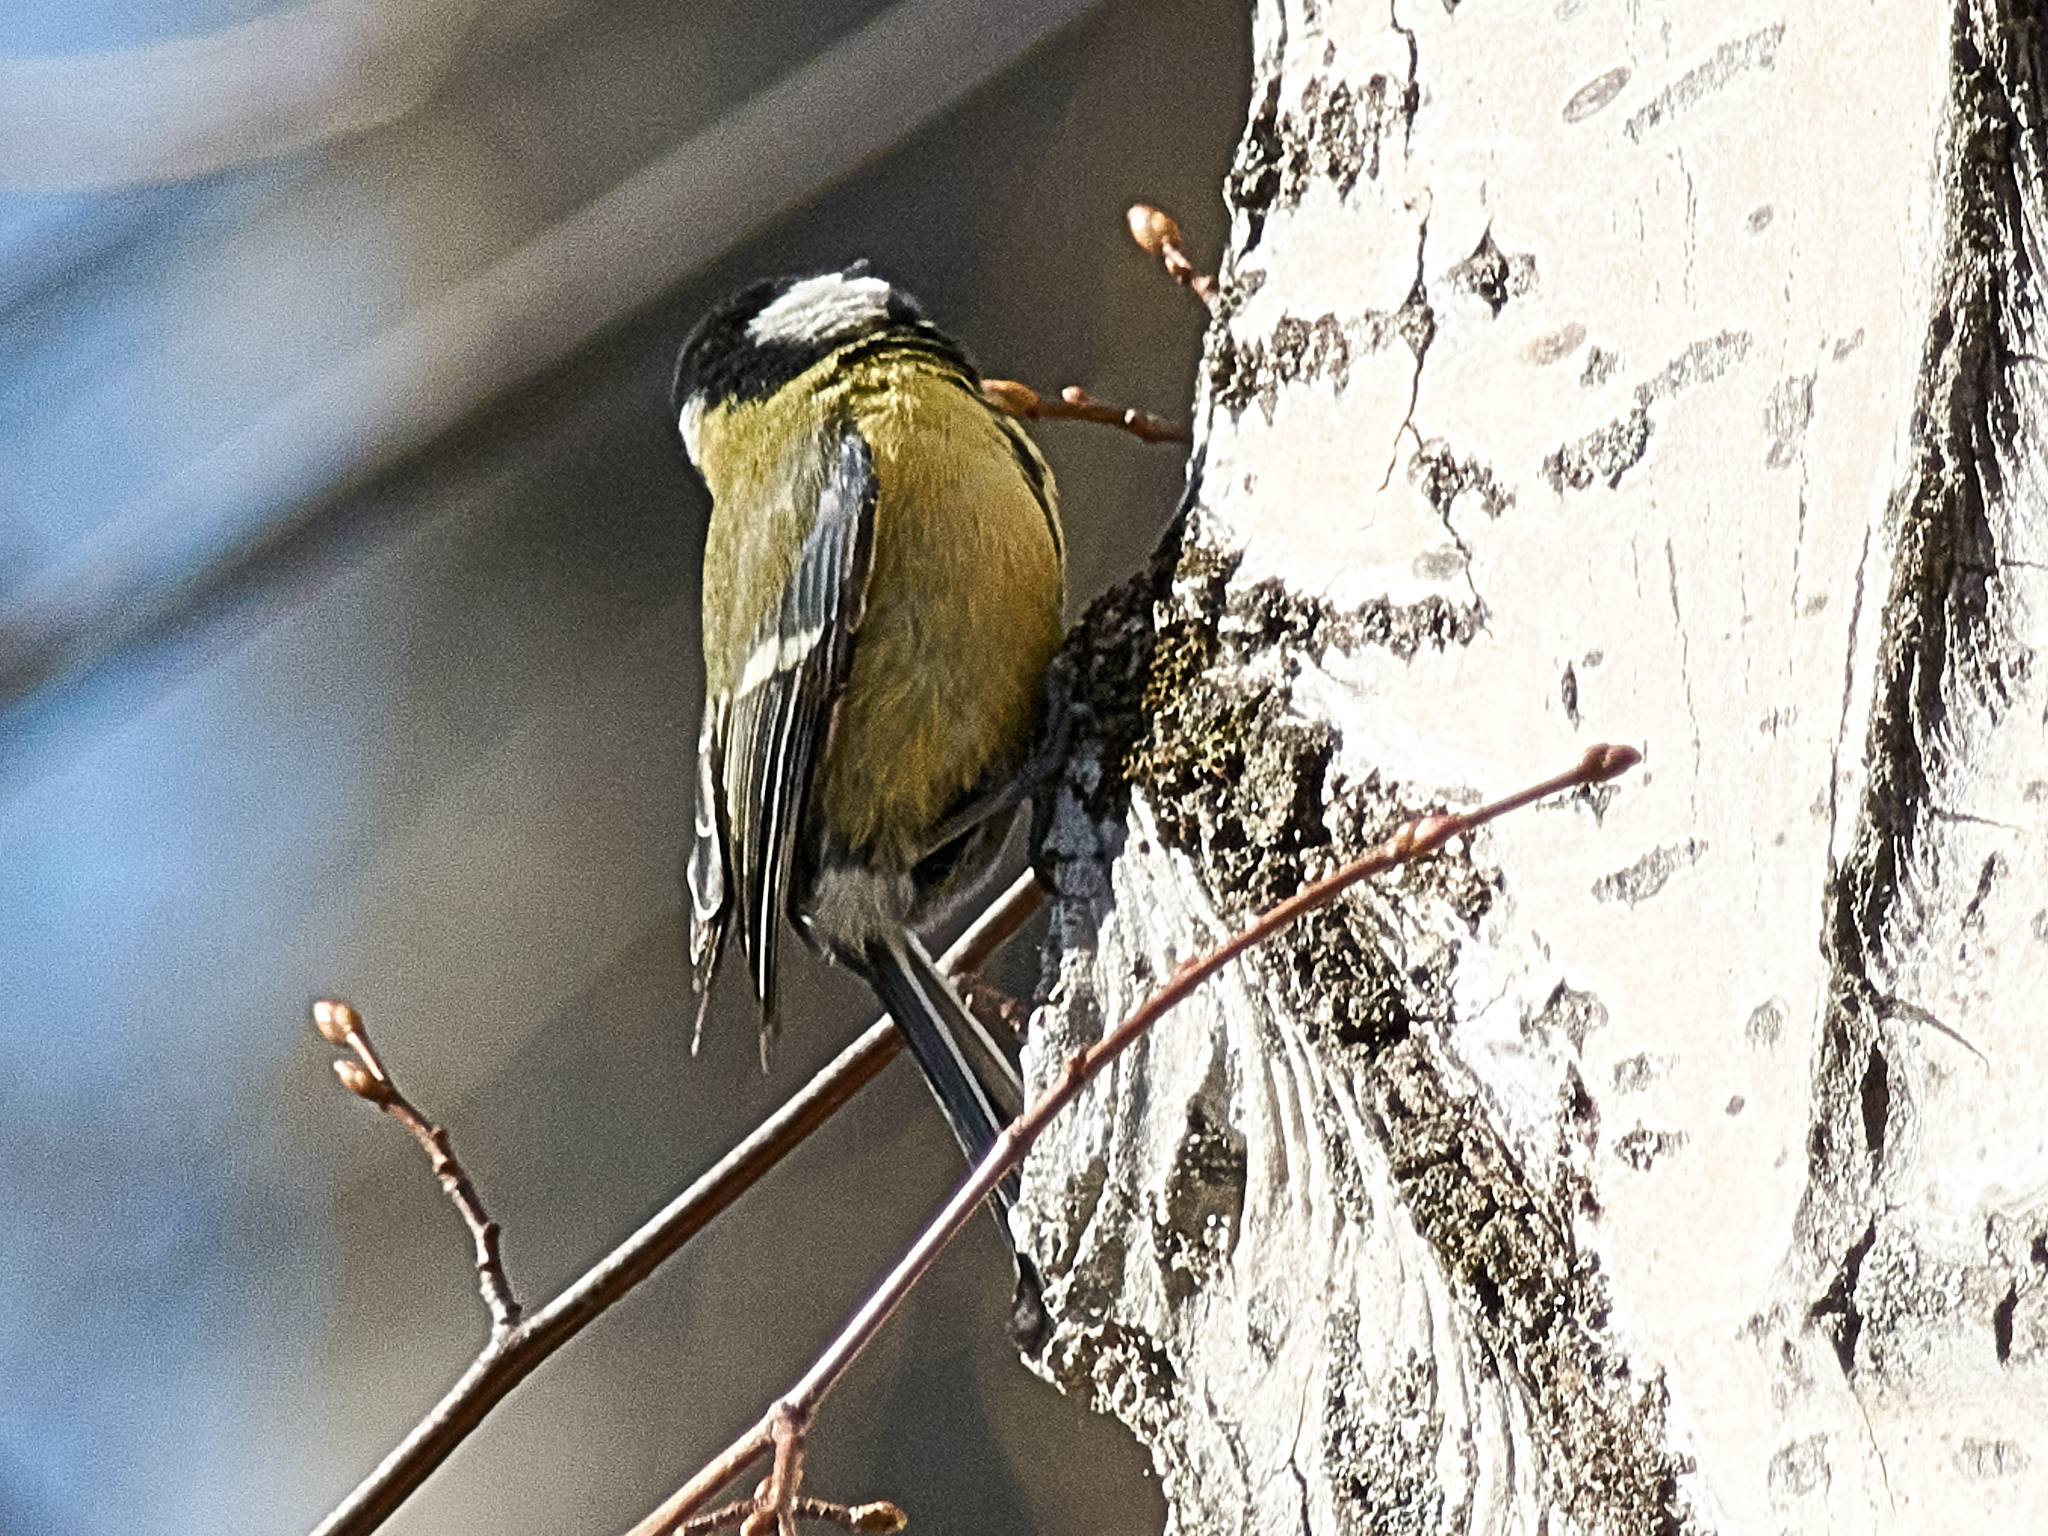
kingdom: Animalia
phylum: Chordata
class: Aves
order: Passeriformes
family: Paridae
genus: Parus
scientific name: Parus major
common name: Great tit
